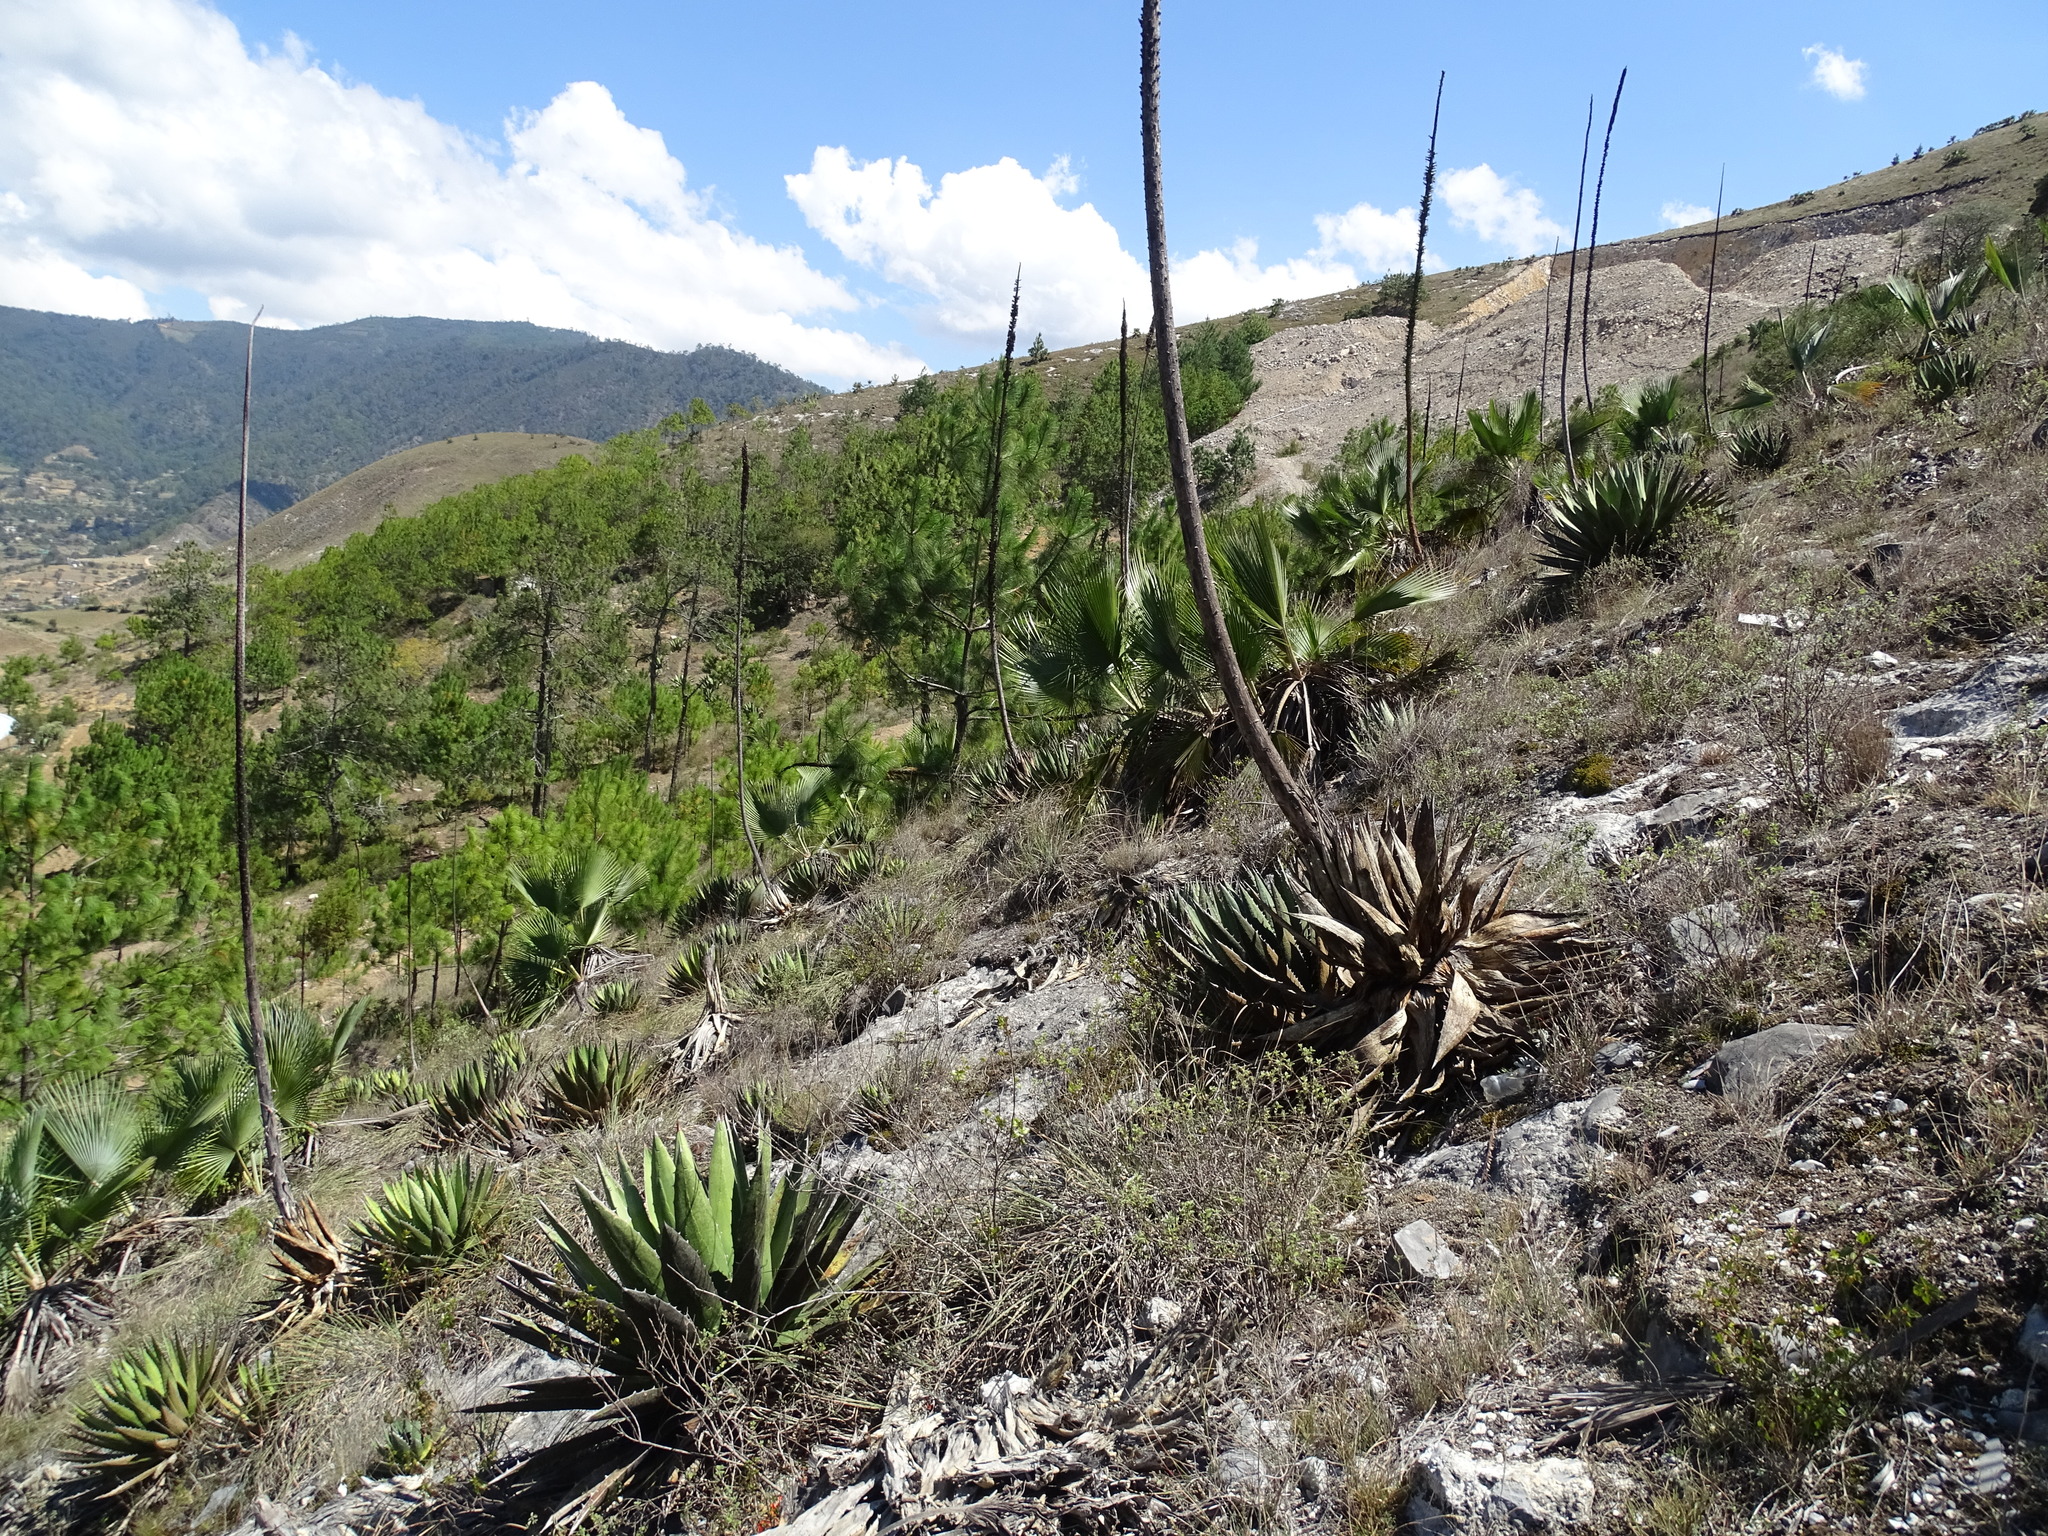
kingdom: Plantae
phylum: Tracheophyta
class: Liliopsida
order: Asparagales
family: Asparagaceae
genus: Agave
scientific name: Agave kerchovei
